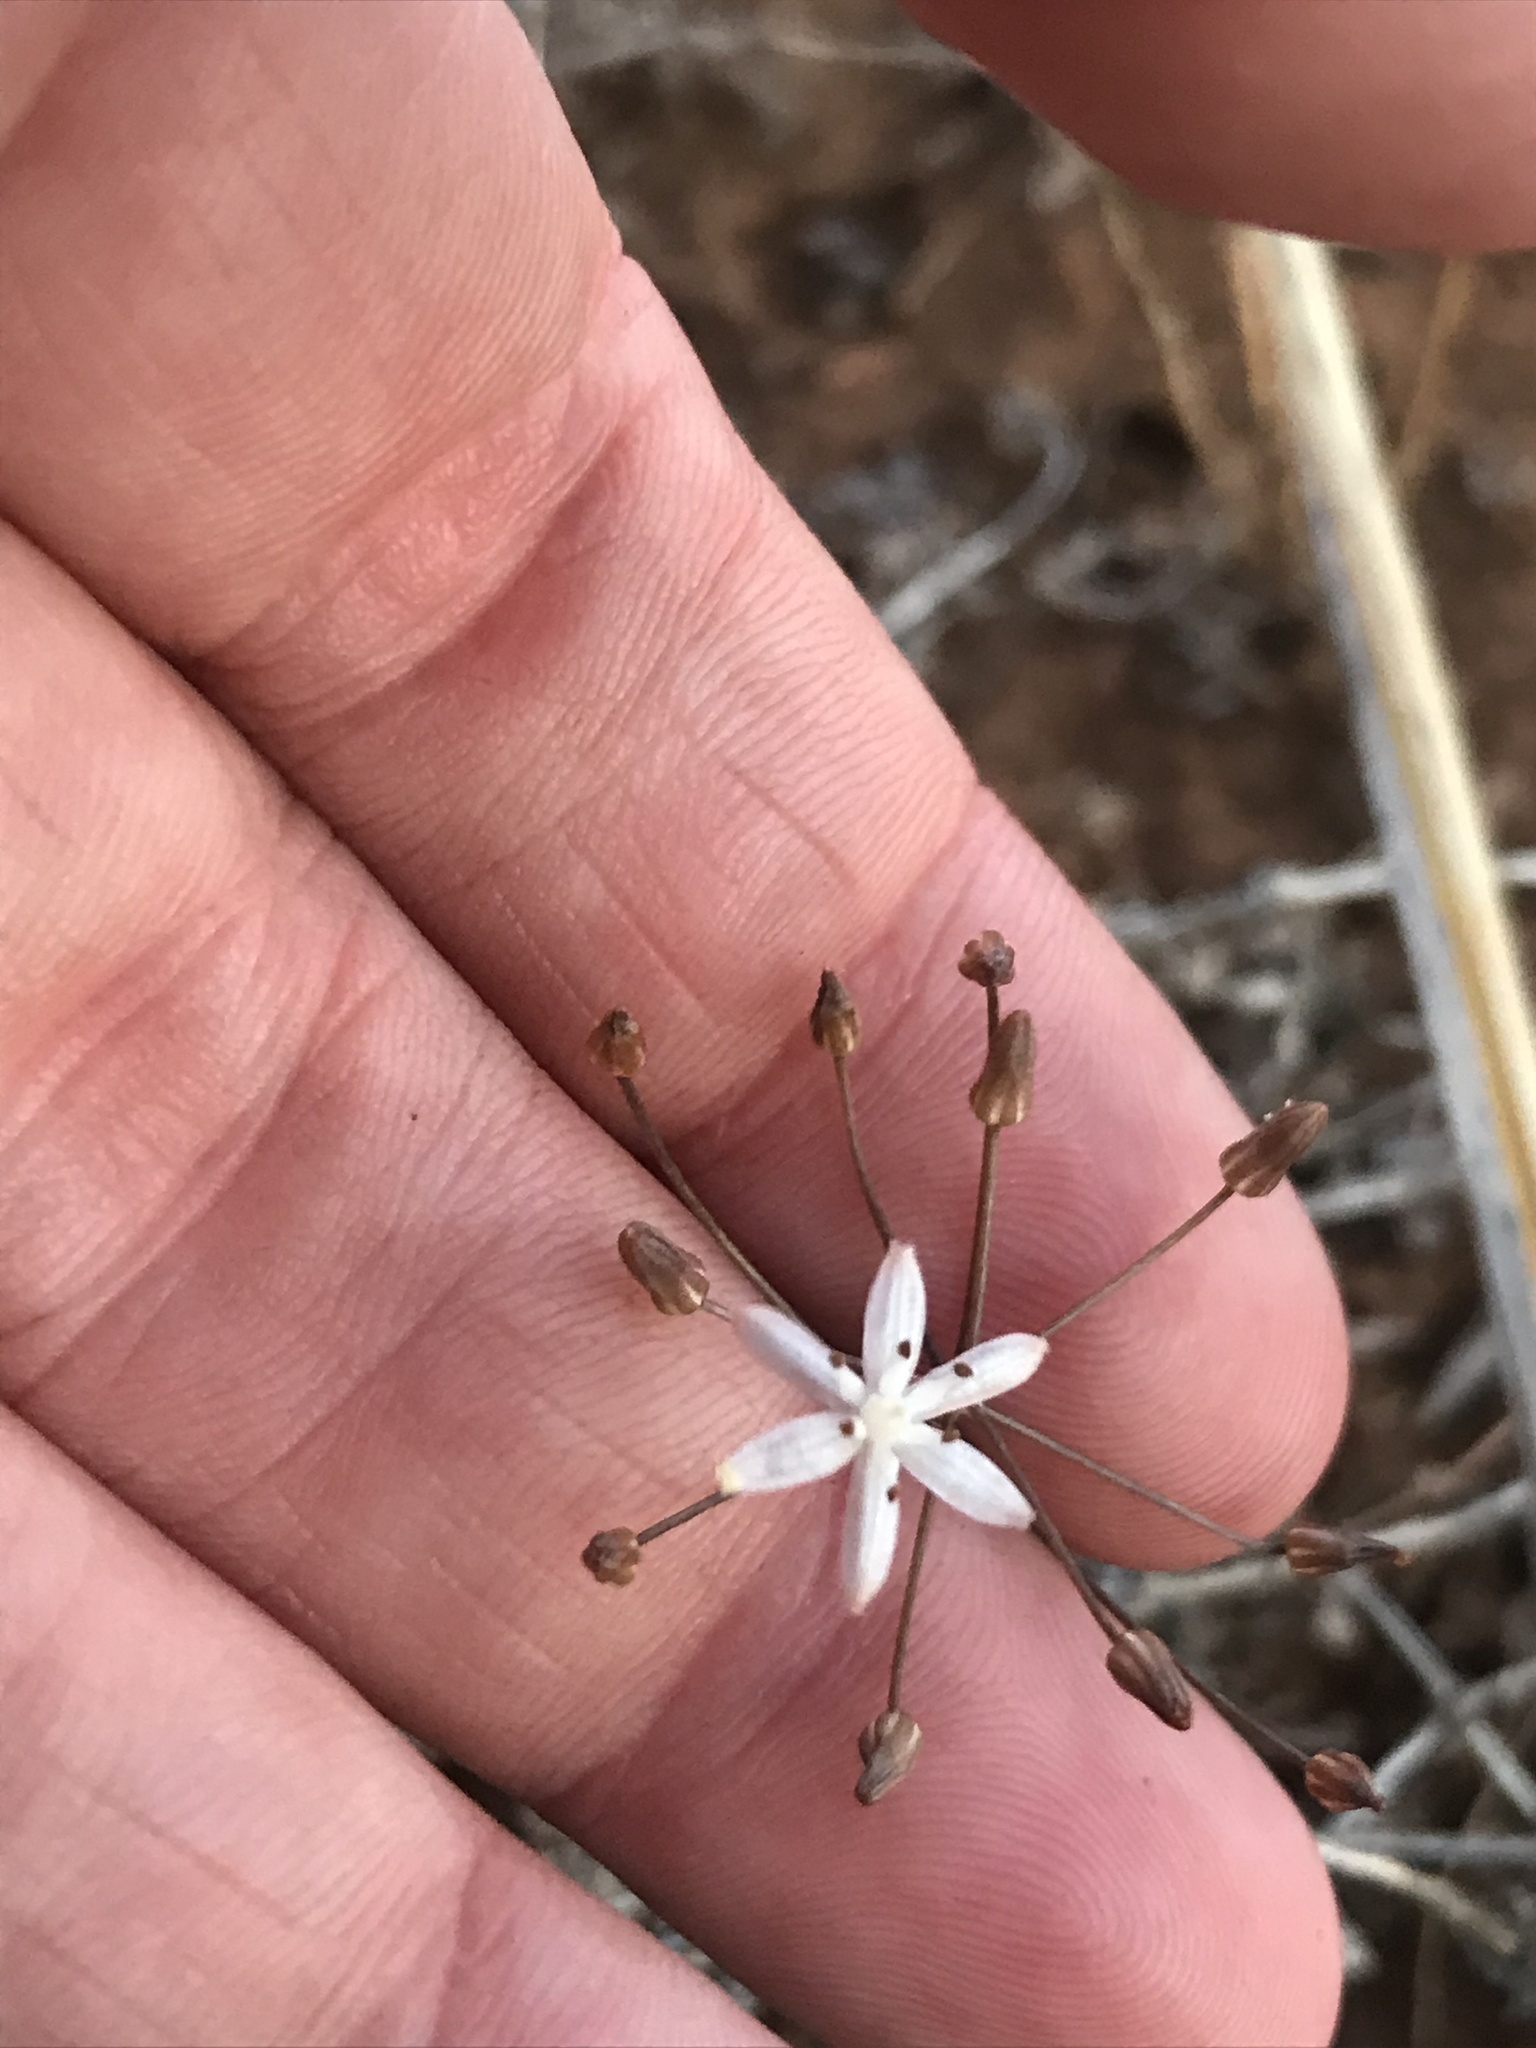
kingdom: Plantae
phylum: Tracheophyta
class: Liliopsida
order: Asparagales
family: Asparagaceae
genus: Fusifilum
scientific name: Fusifilum physodes
